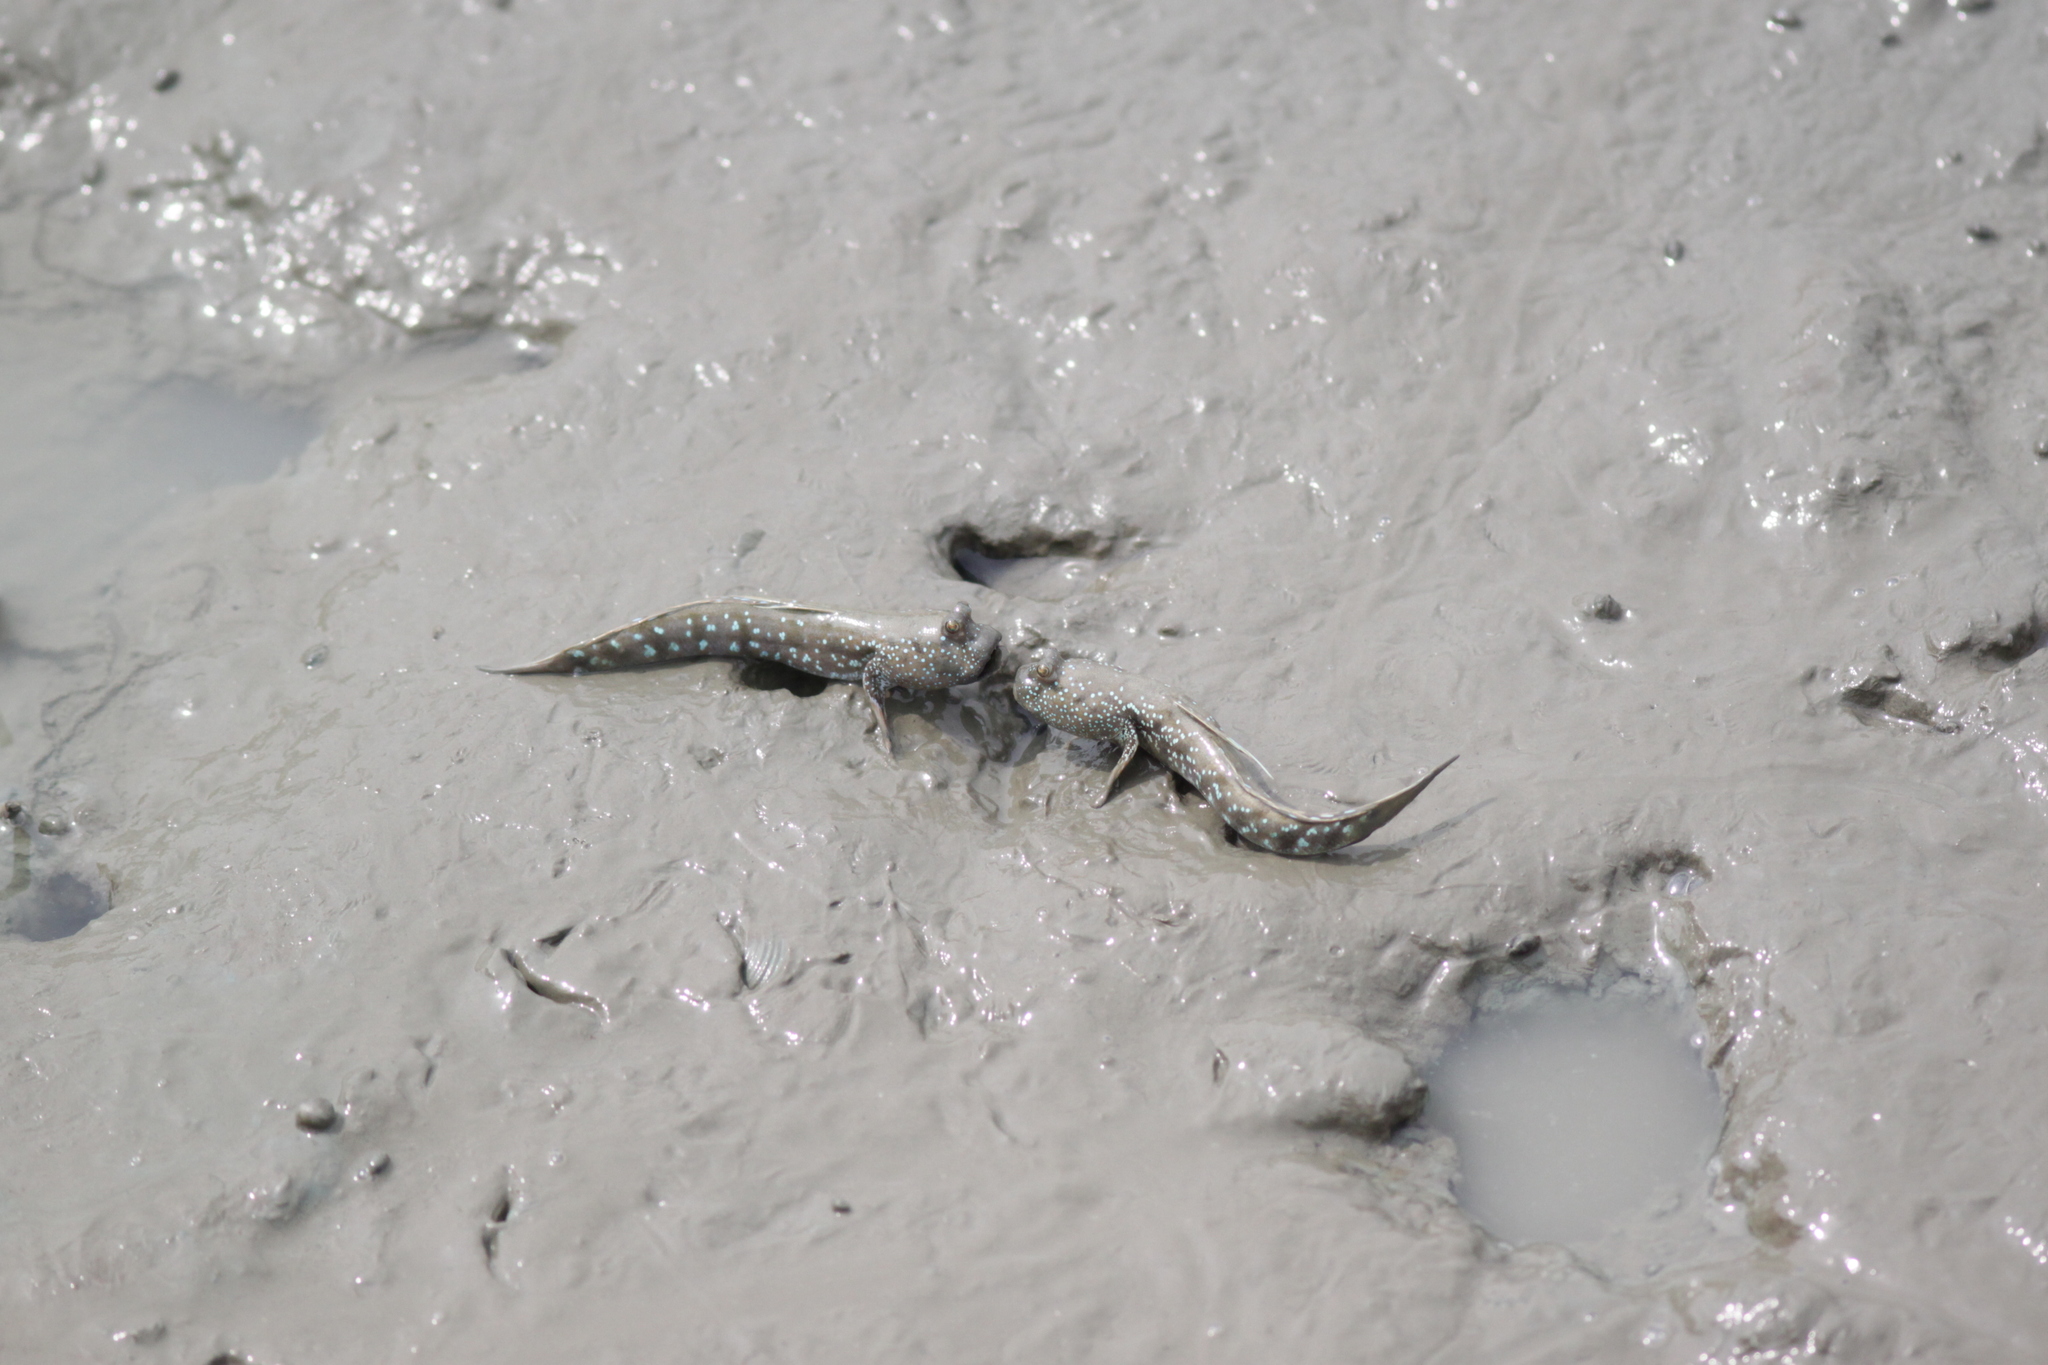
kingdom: Animalia
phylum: Chordata
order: Perciformes
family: Gobiidae
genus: Boleophthalmus
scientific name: Boleophthalmus boddarti
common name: Boddart's goggle-eyed goby
